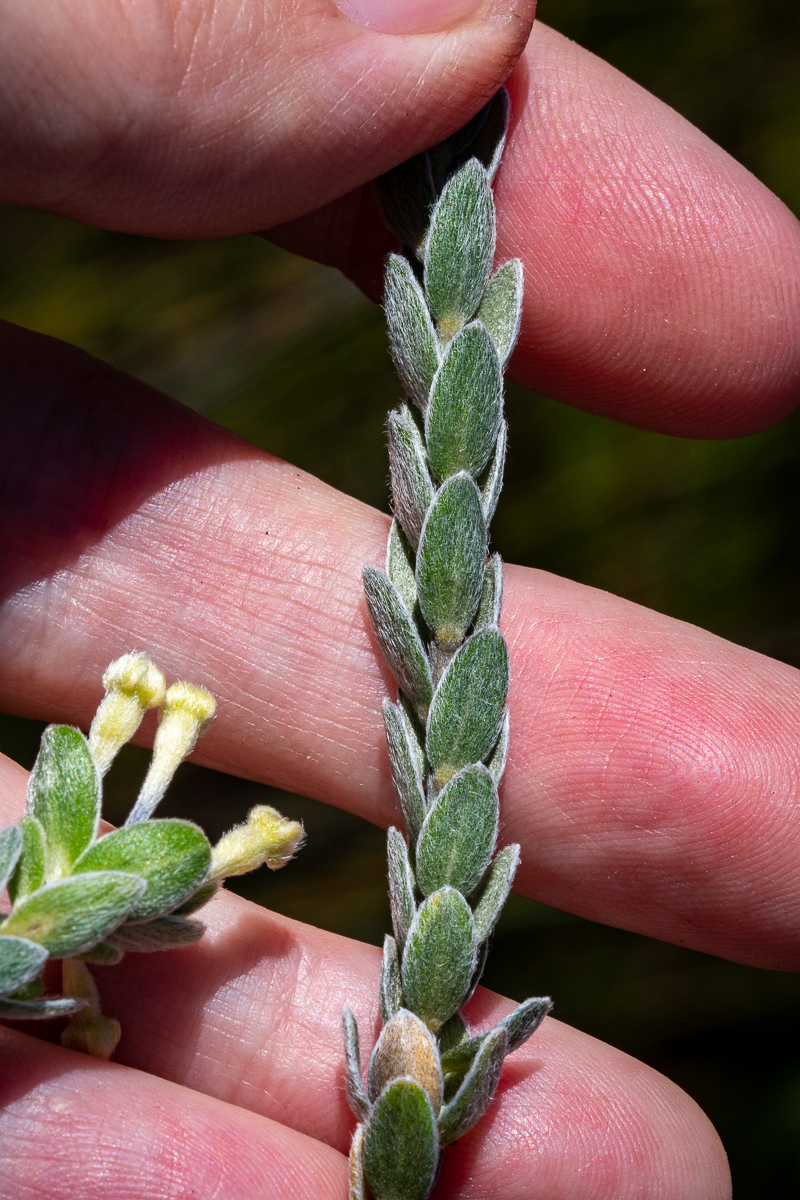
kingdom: Plantae
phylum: Tracheophyta
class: Magnoliopsida
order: Malvales
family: Thymelaeaceae
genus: Gnidia
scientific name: Gnidia anomala
